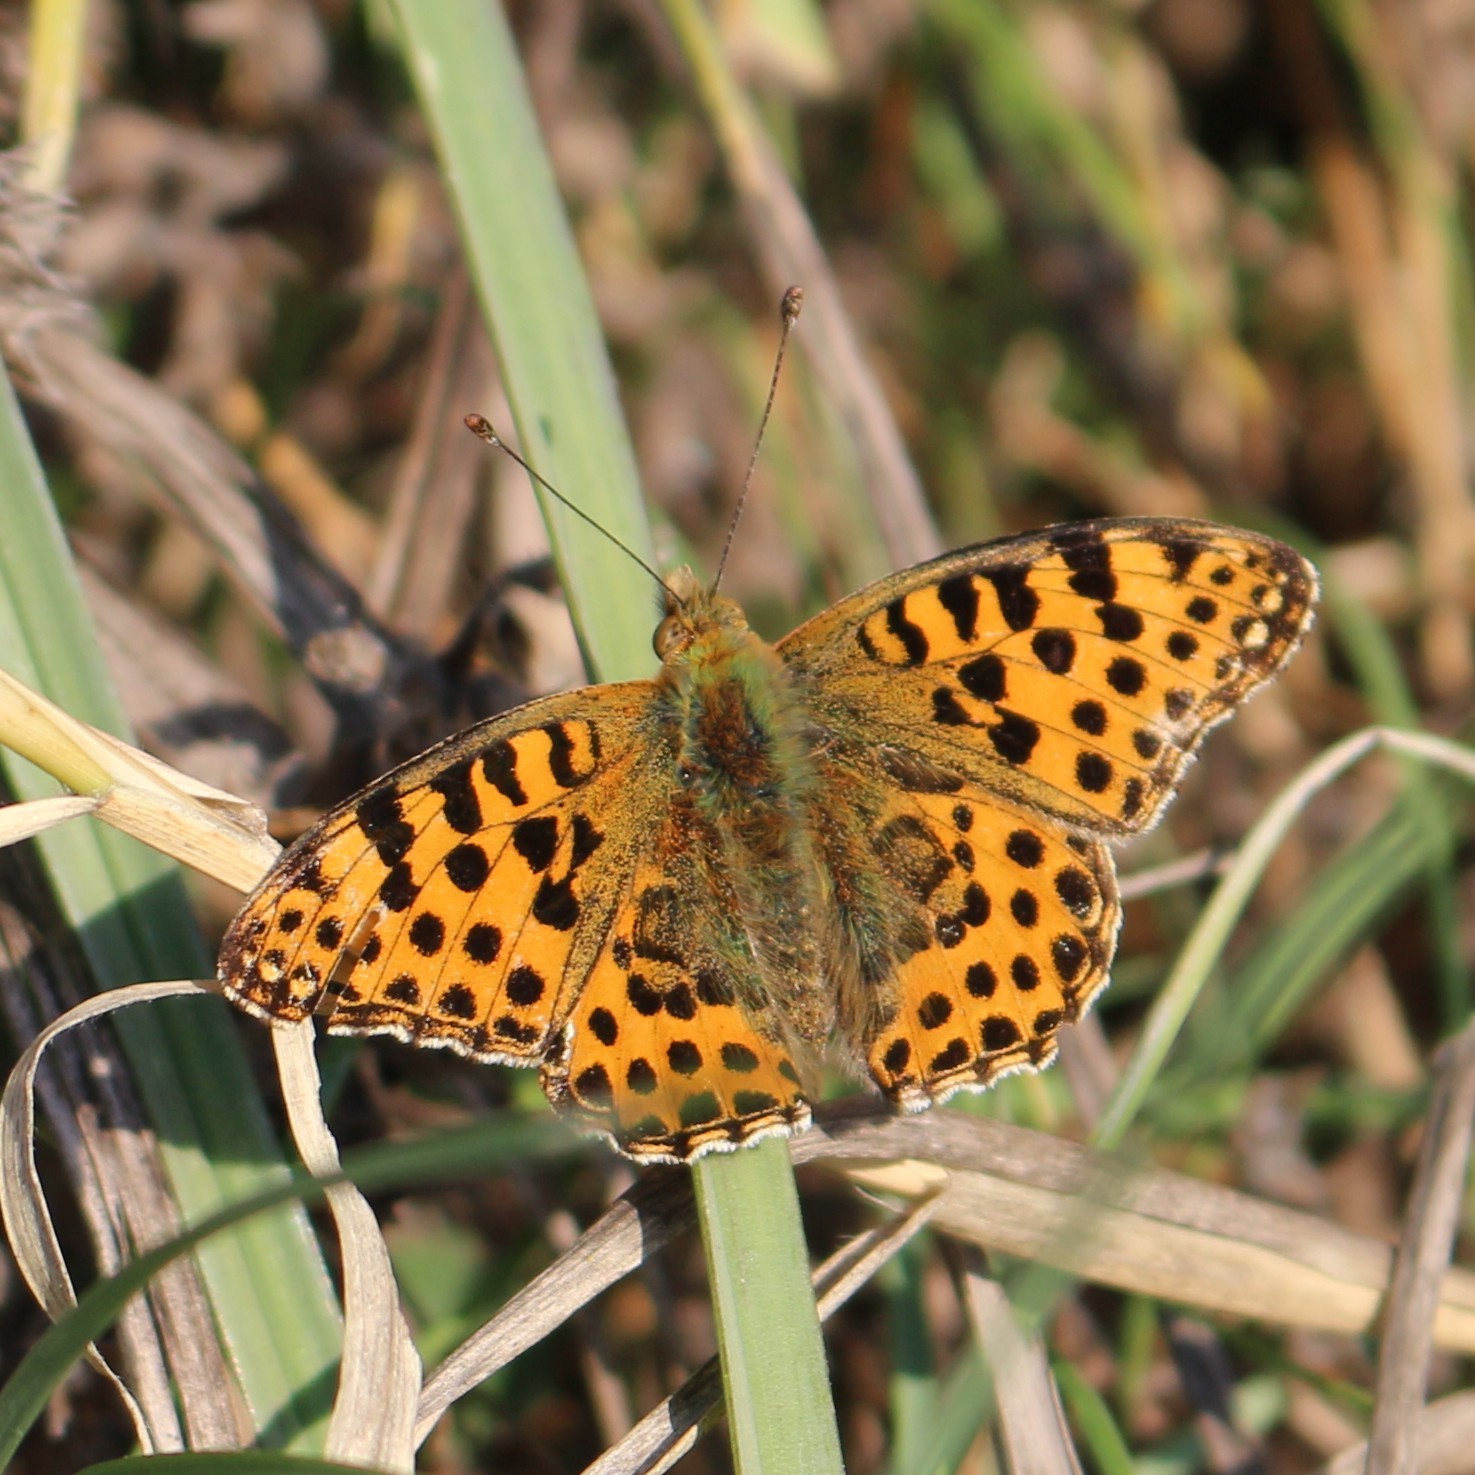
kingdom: Animalia
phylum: Arthropoda
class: Insecta
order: Lepidoptera
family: Nymphalidae
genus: Issoria
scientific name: Issoria lathonia
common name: Queen of spain fritillary
